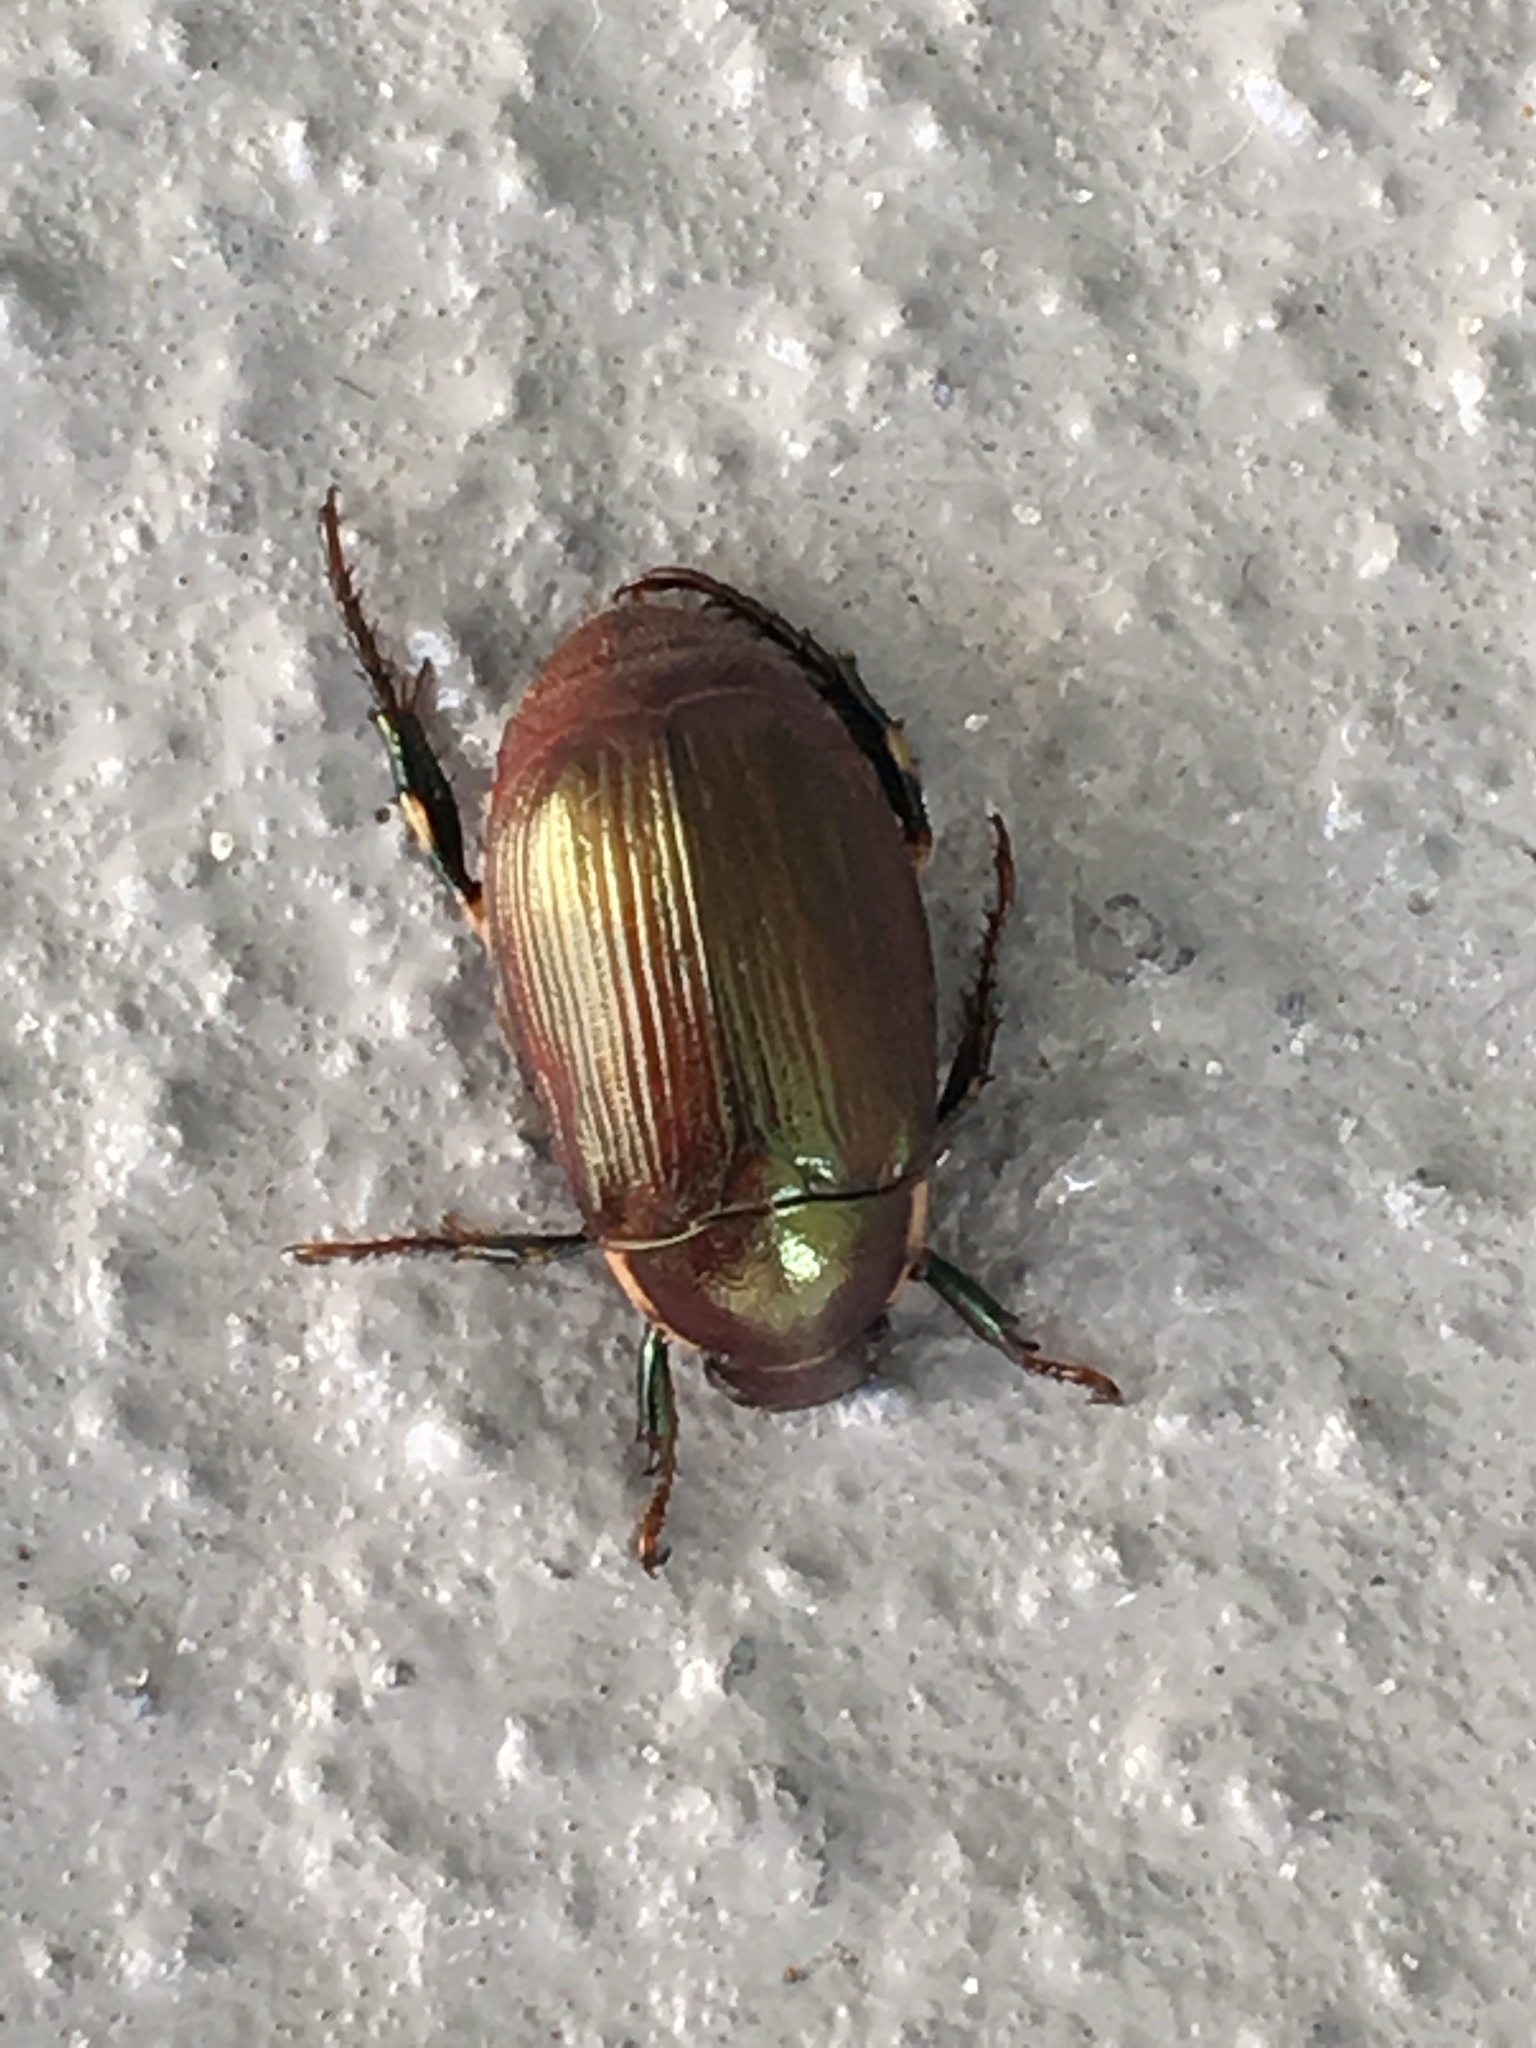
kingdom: Animalia
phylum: Arthropoda
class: Insecta
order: Coleoptera
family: Scarabaeidae
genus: Callistethus
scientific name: Callistethus marginatus
